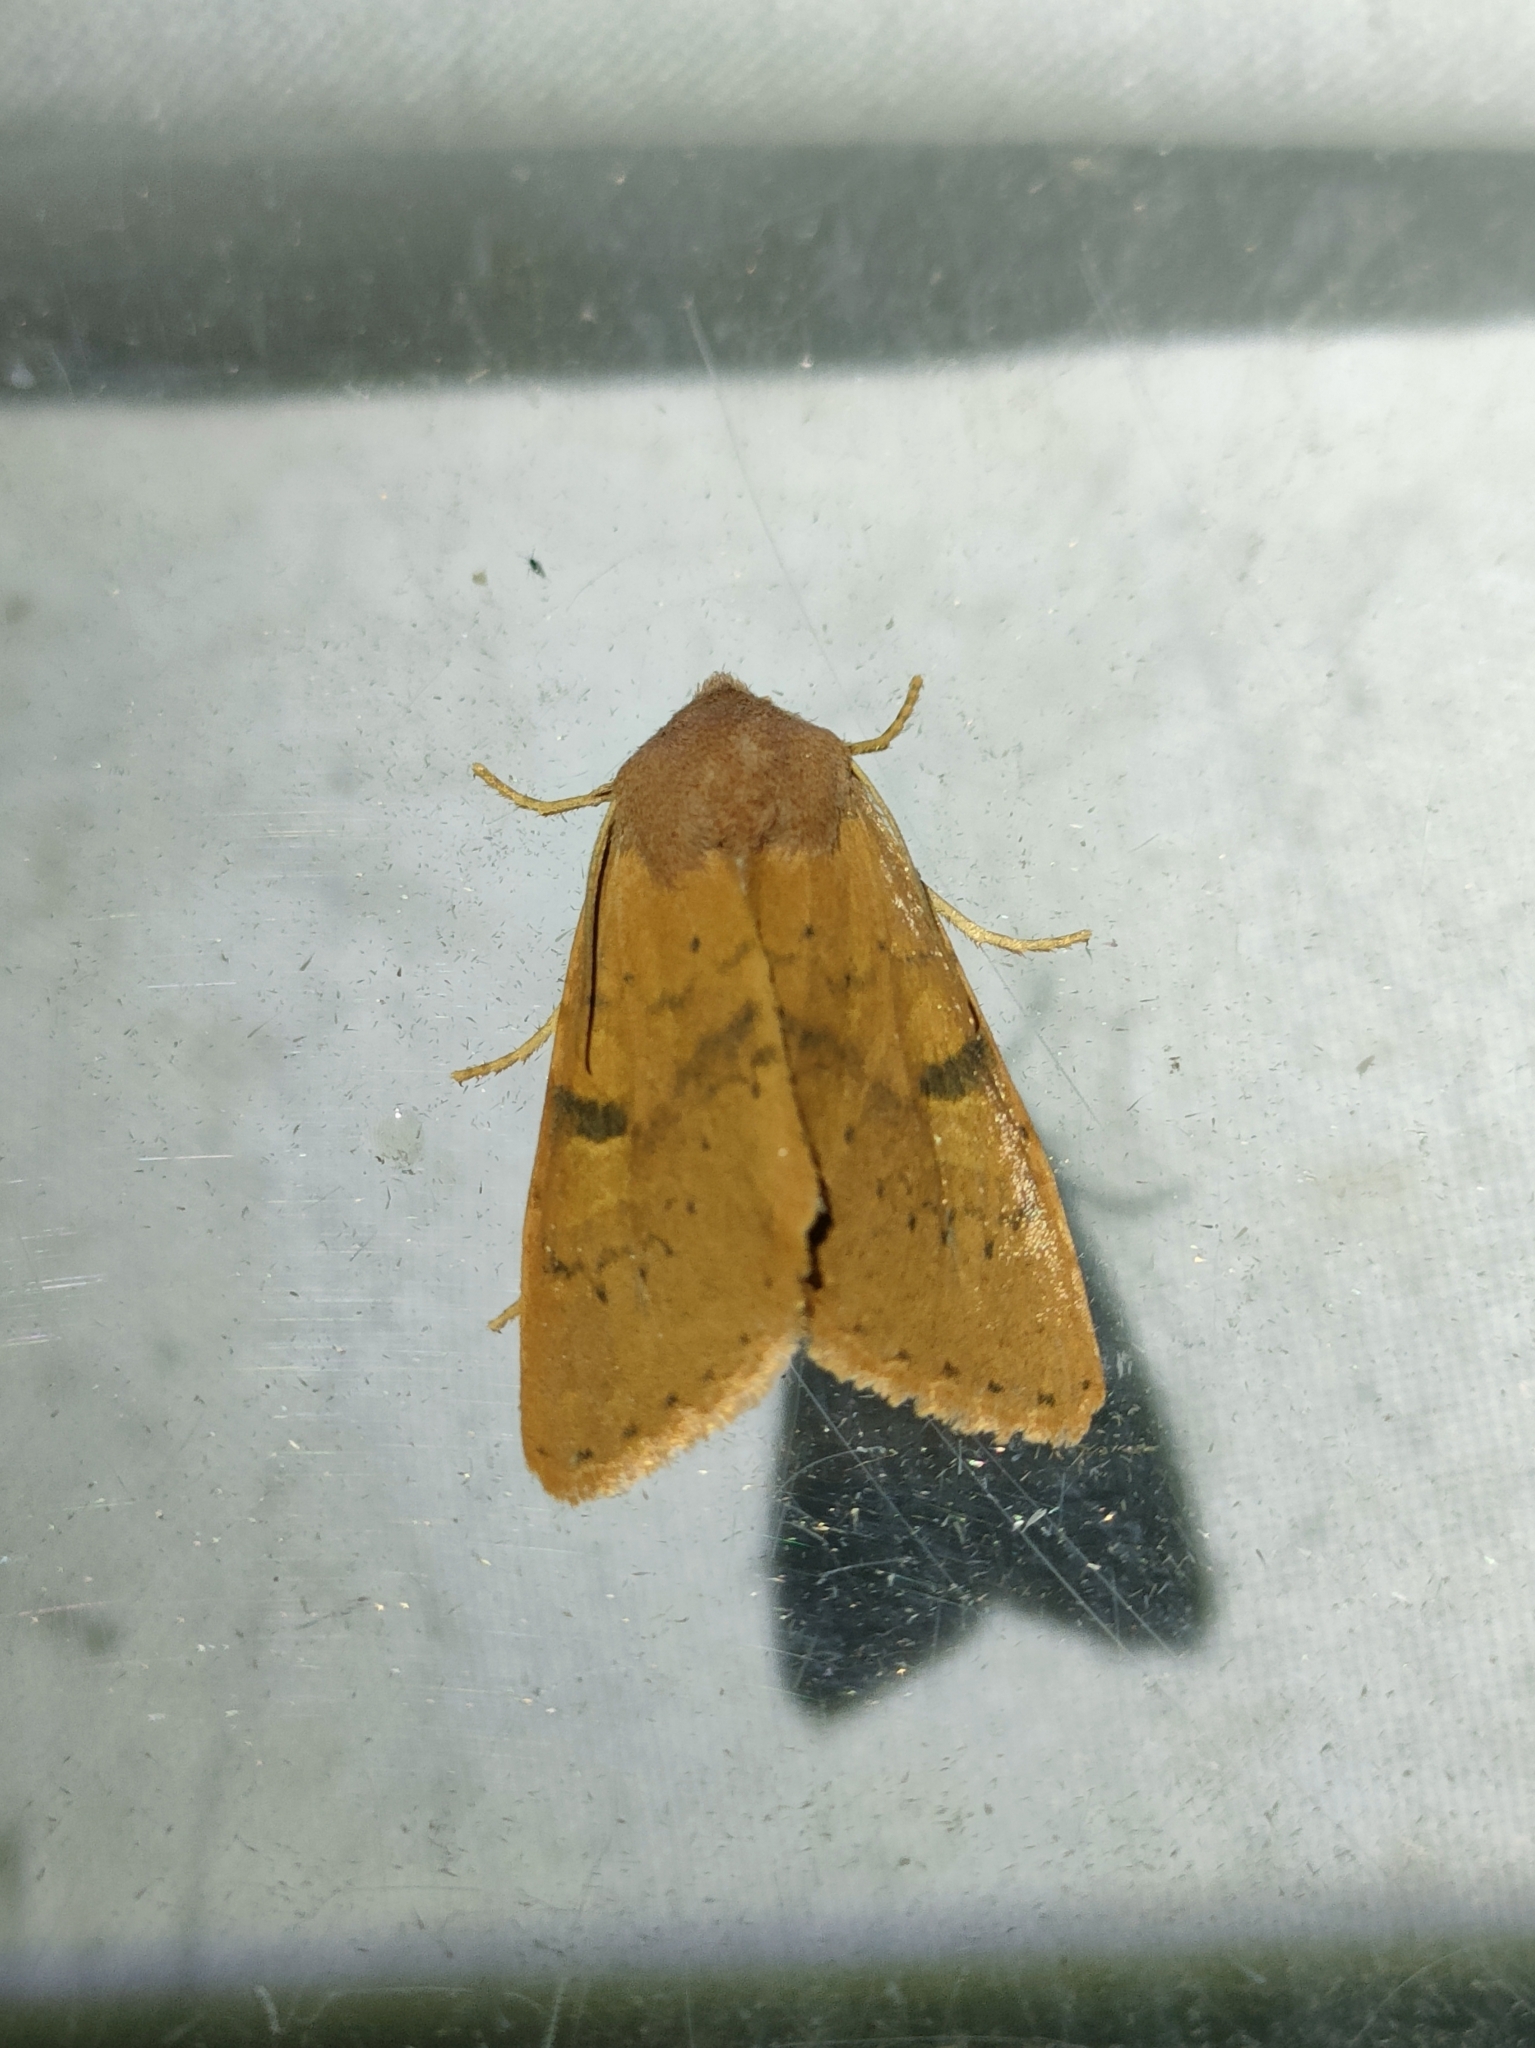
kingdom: Animalia
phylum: Arthropoda
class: Insecta
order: Lepidoptera
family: Noctuidae
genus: Ammopolia
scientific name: Ammopolia witzenmanni
